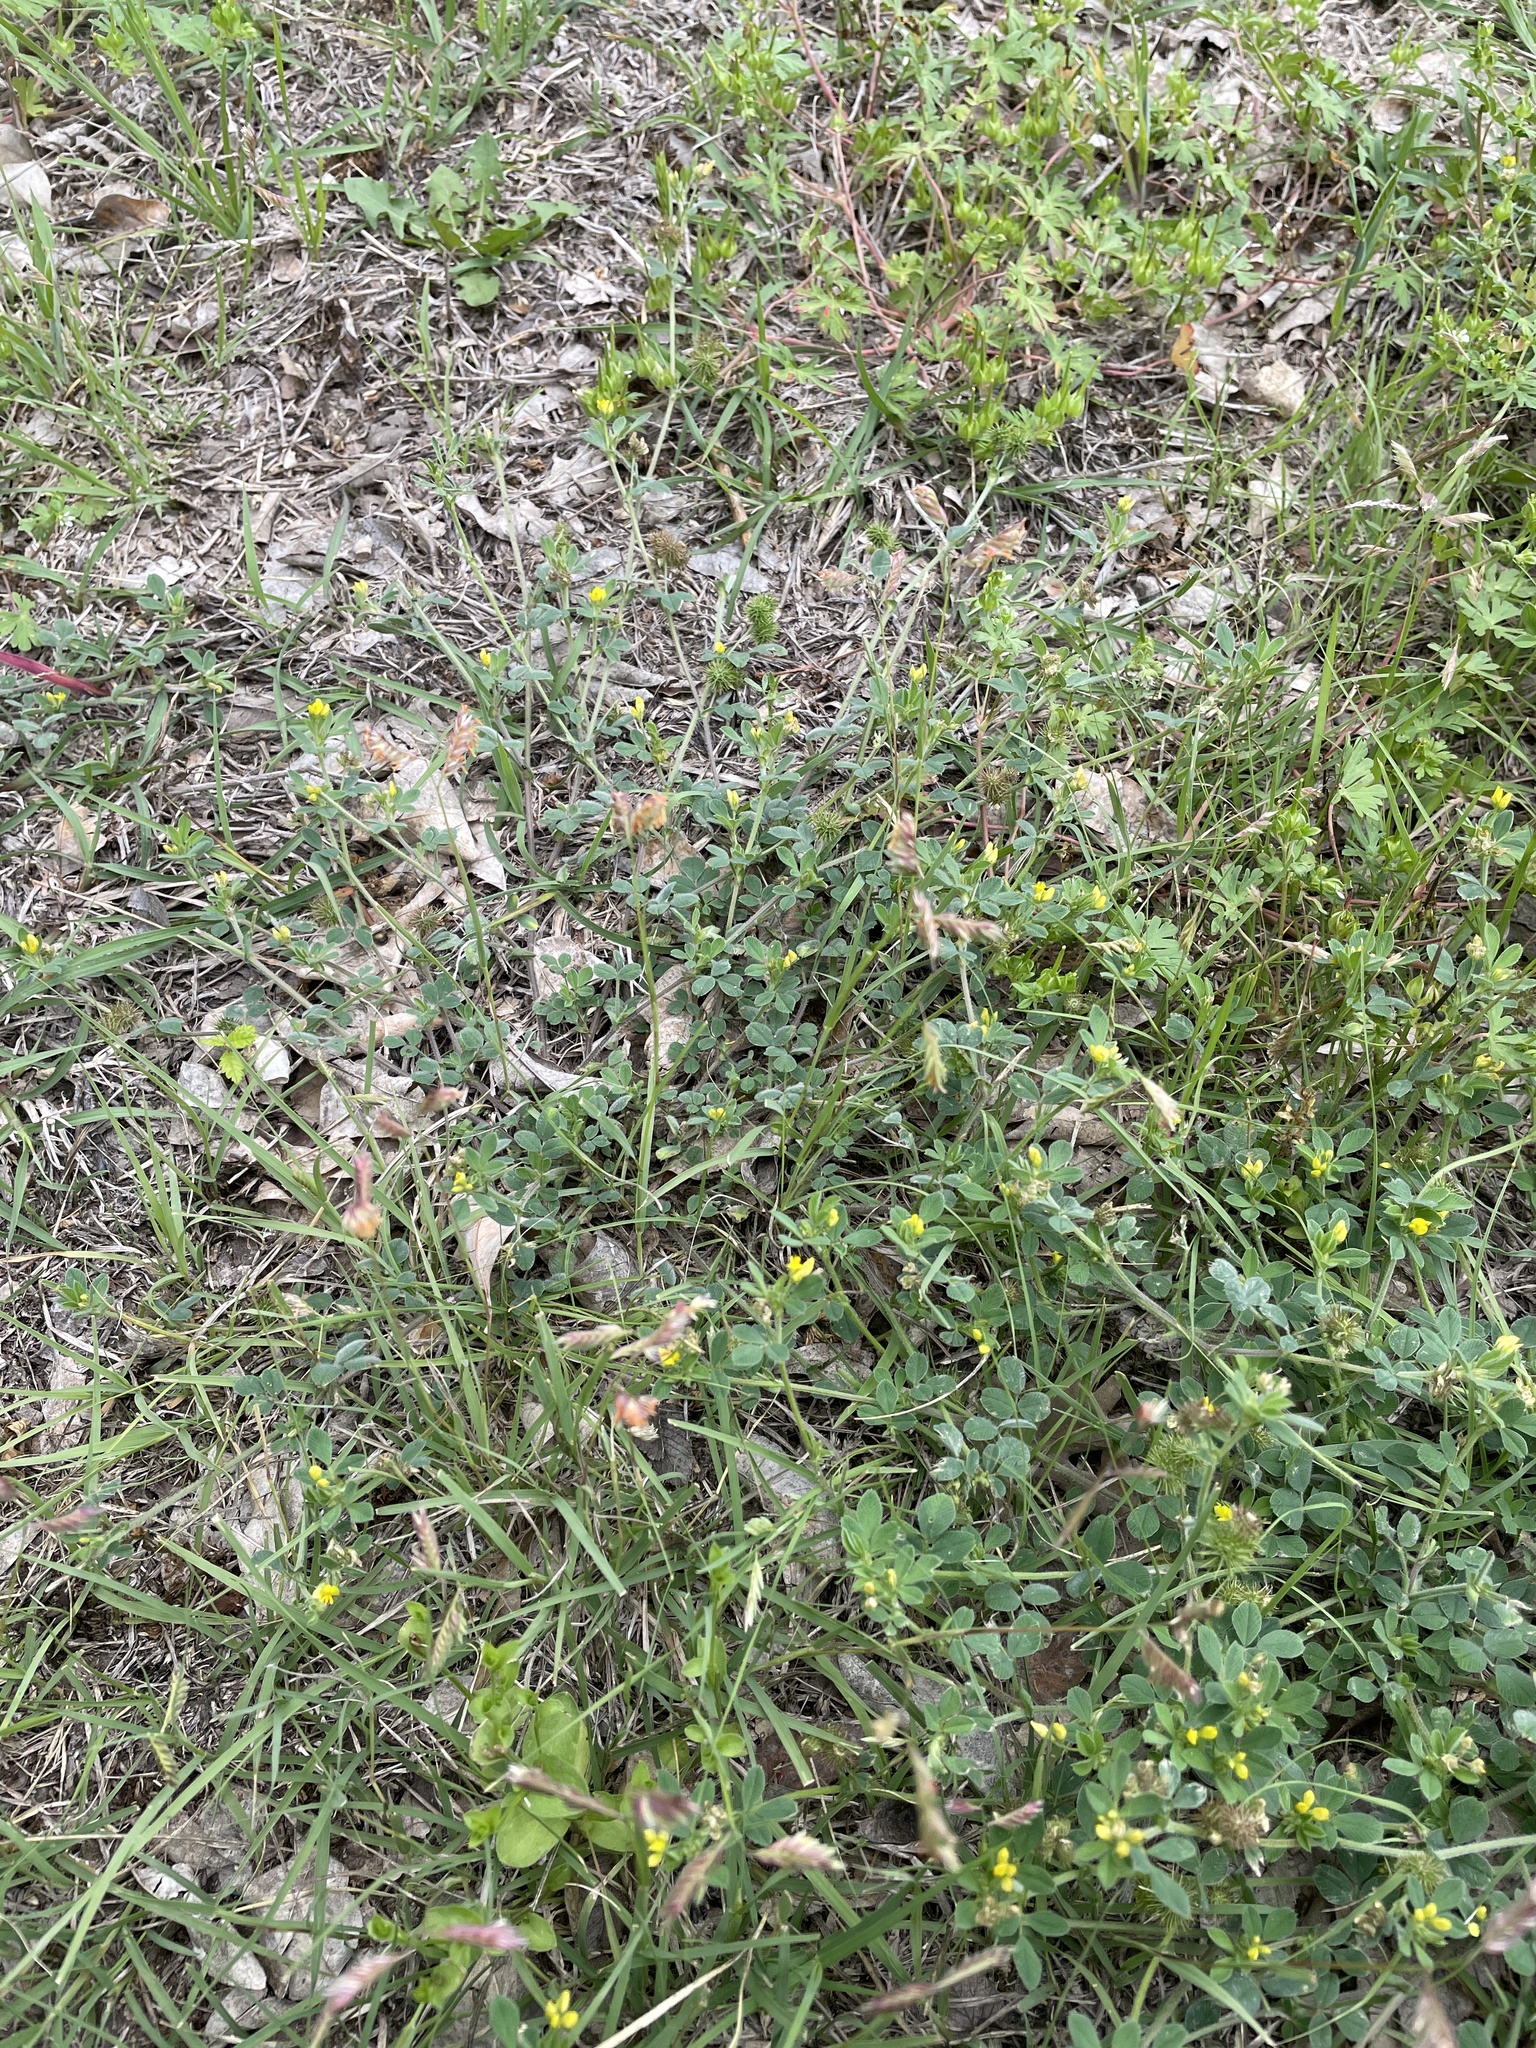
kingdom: Plantae
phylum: Tracheophyta
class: Liliopsida
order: Poales
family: Poaceae
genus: Bouteloua
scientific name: Bouteloua dactyloides
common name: Buffalo grass
